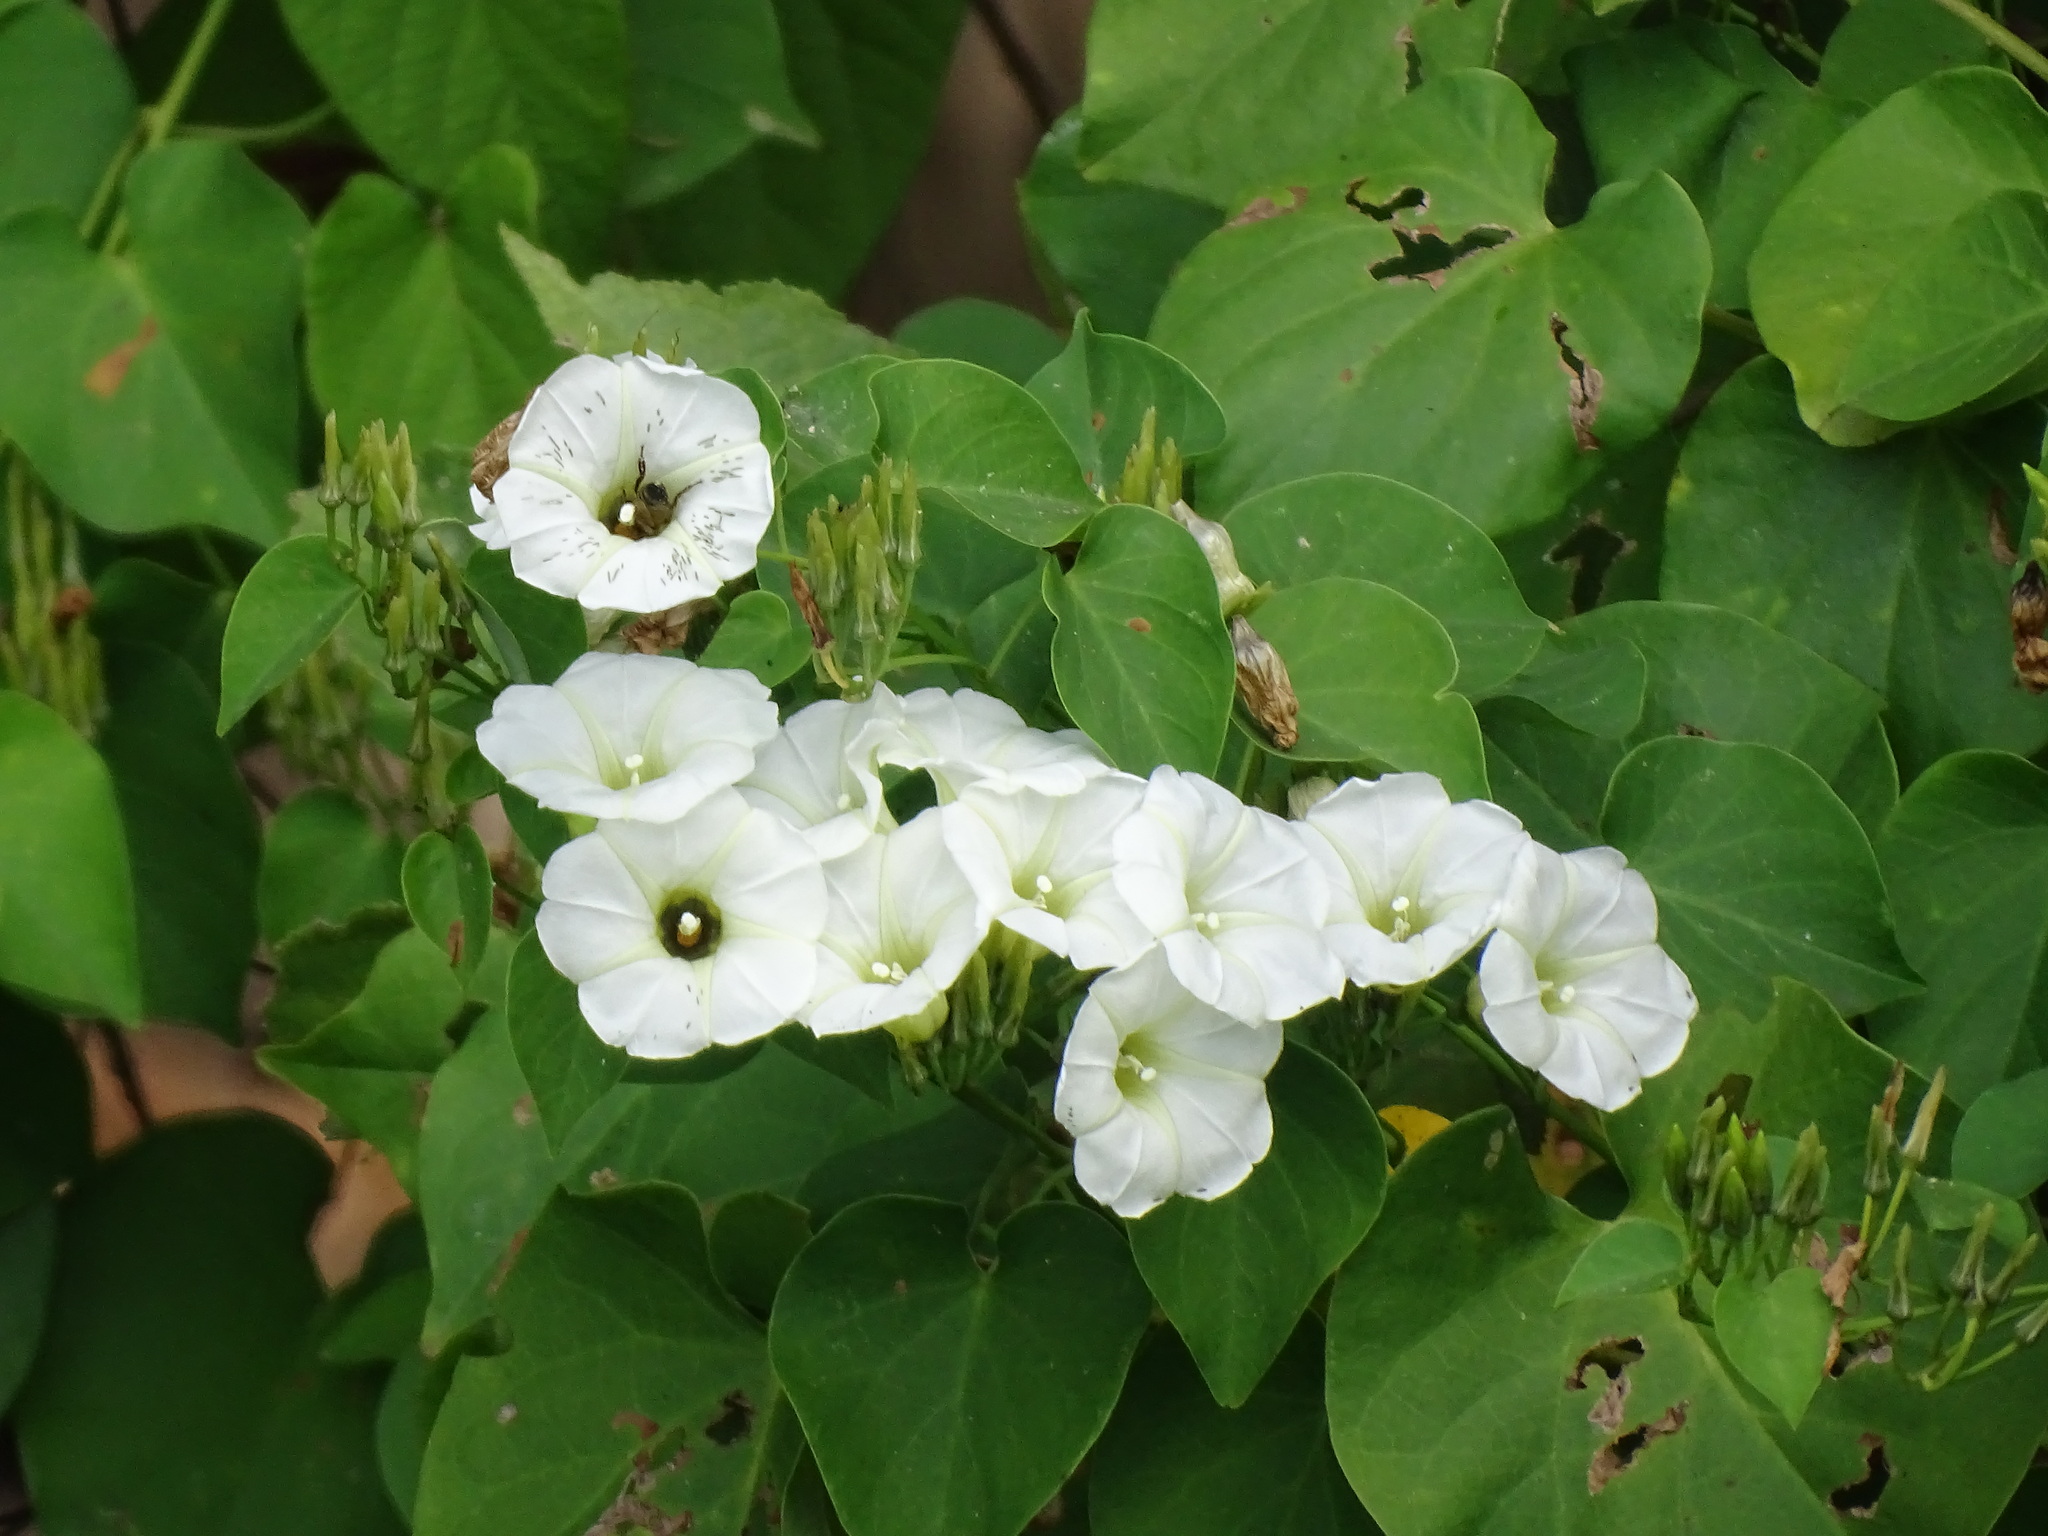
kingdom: Plantae
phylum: Tracheophyta
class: Magnoliopsida
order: Solanales
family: Convolvulaceae
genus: Ipomoea
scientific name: Ipomoea corymbosa
